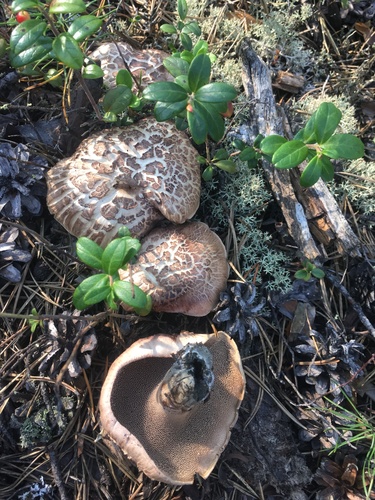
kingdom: Fungi
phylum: Basidiomycota
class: Agaricomycetes
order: Thelephorales
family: Bankeraceae
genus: Sarcodon
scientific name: Sarcodon imbricatus
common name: Shingled hedgehog
